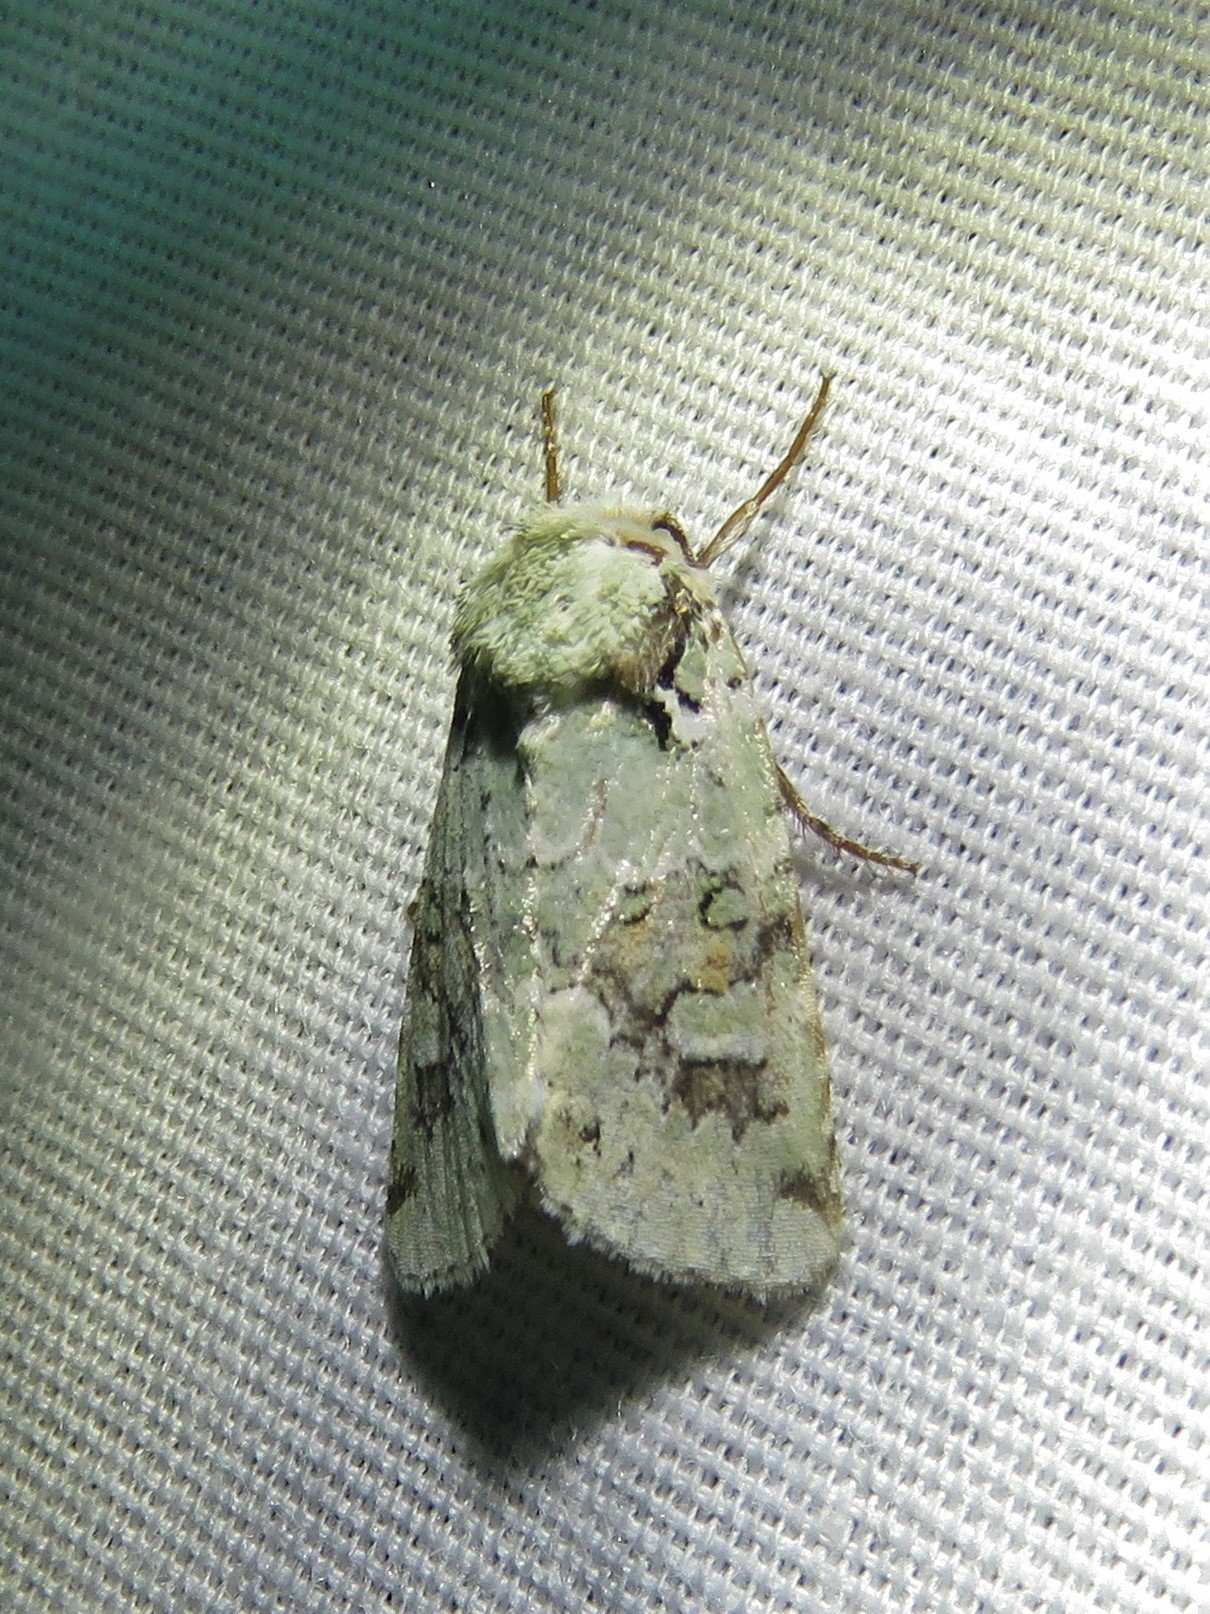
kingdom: Animalia
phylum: Arthropoda
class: Insecta
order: Lepidoptera
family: Noctuidae
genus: Lacinipolia
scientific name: Lacinipolia laudabilis
